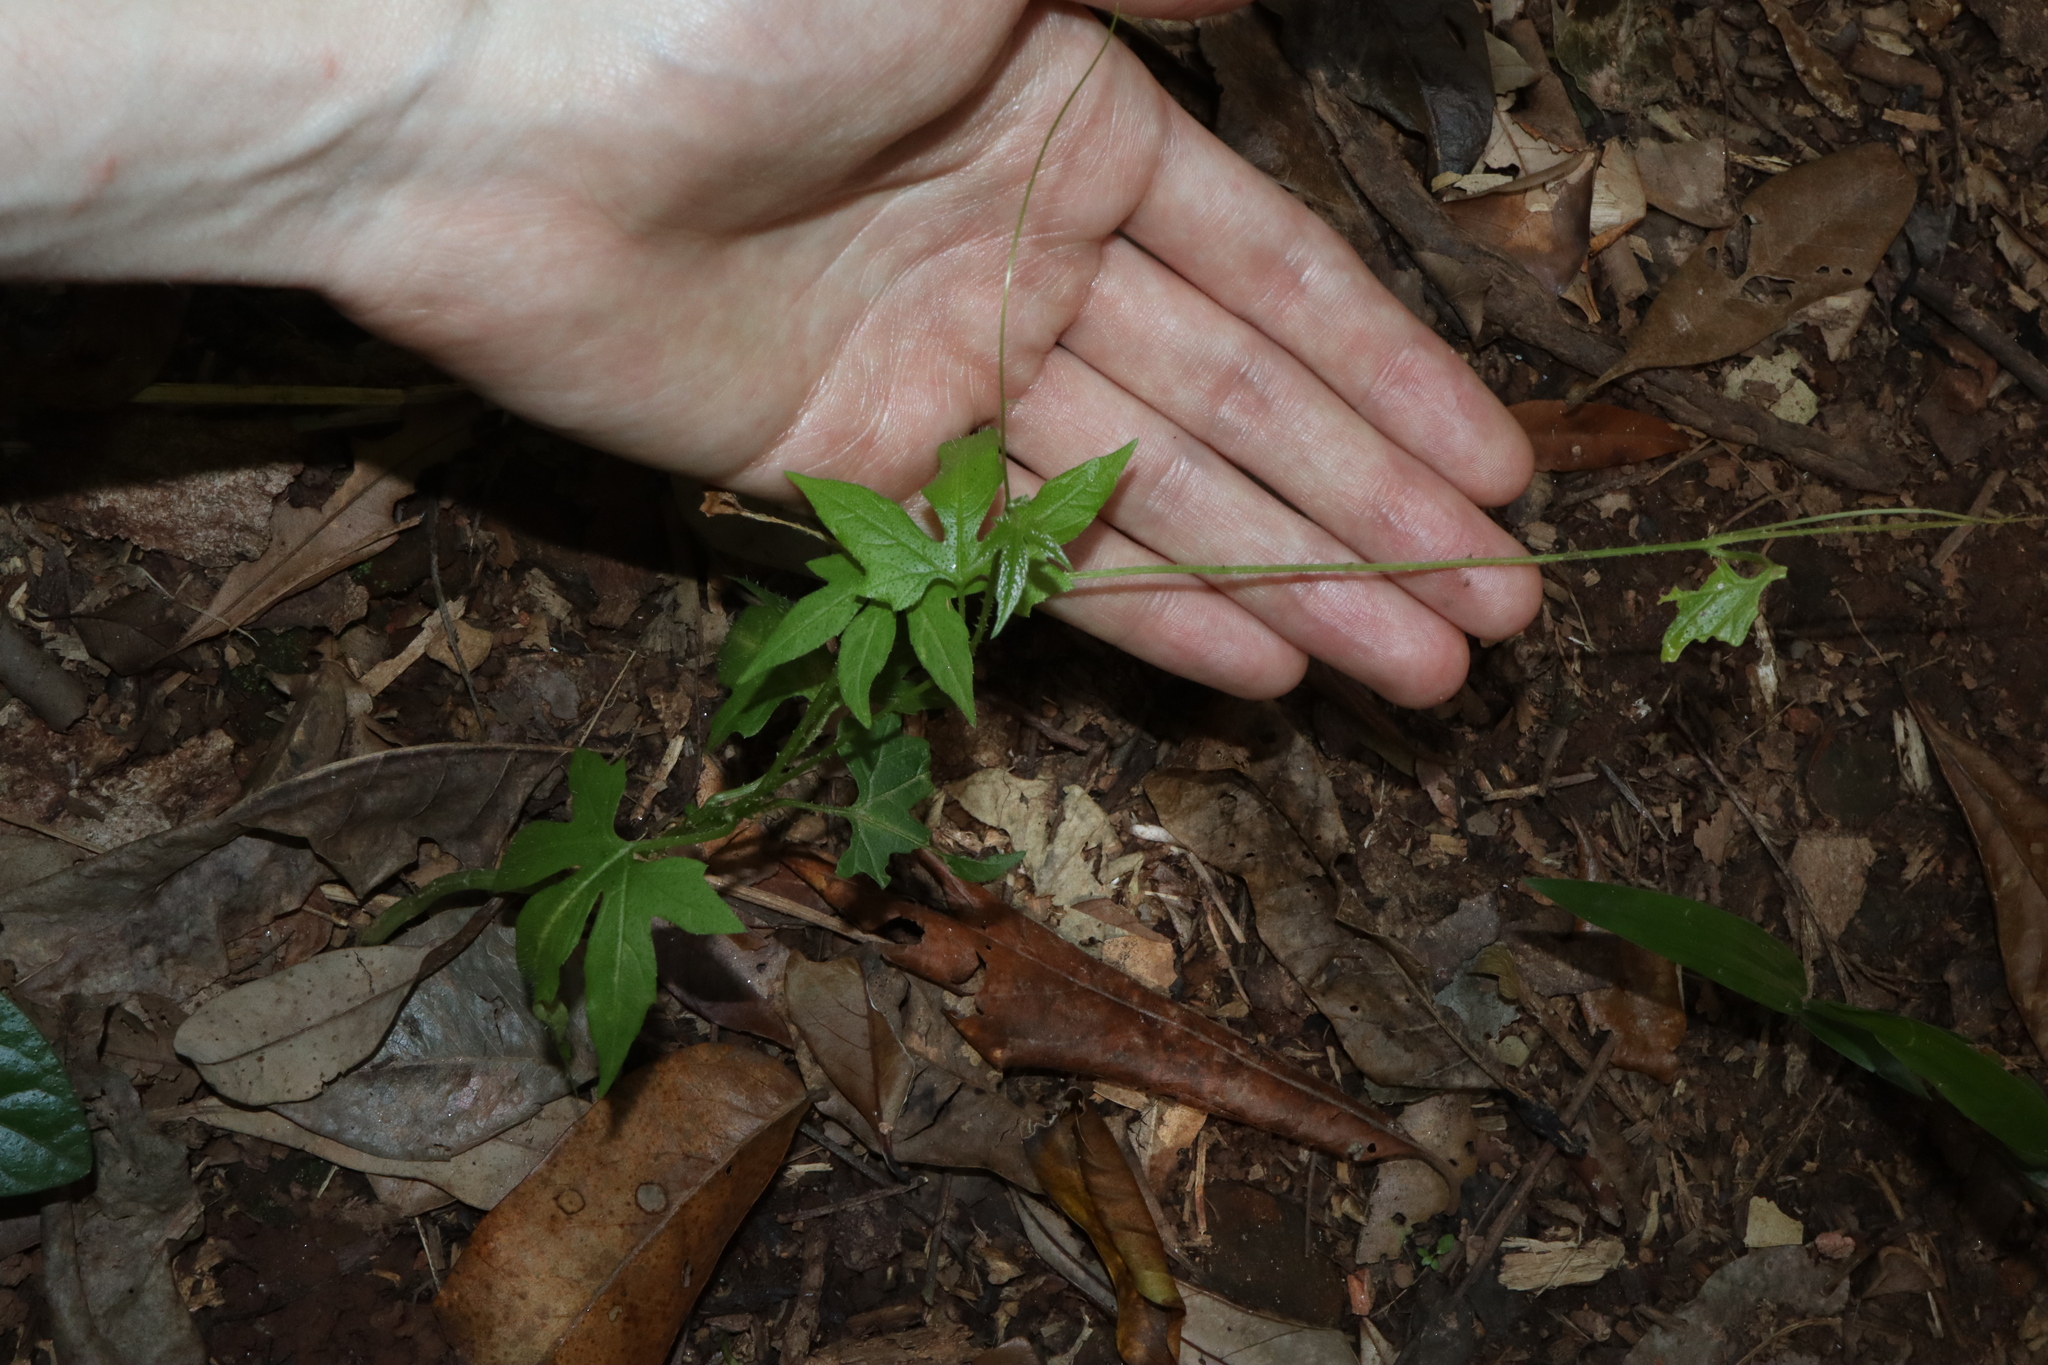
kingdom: Plantae
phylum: Tracheophyta
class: Magnoliopsida
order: Cucurbitales
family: Cucurbitaceae
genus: Diplocyclos
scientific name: Diplocyclos palmatus
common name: Striped-cucumber
